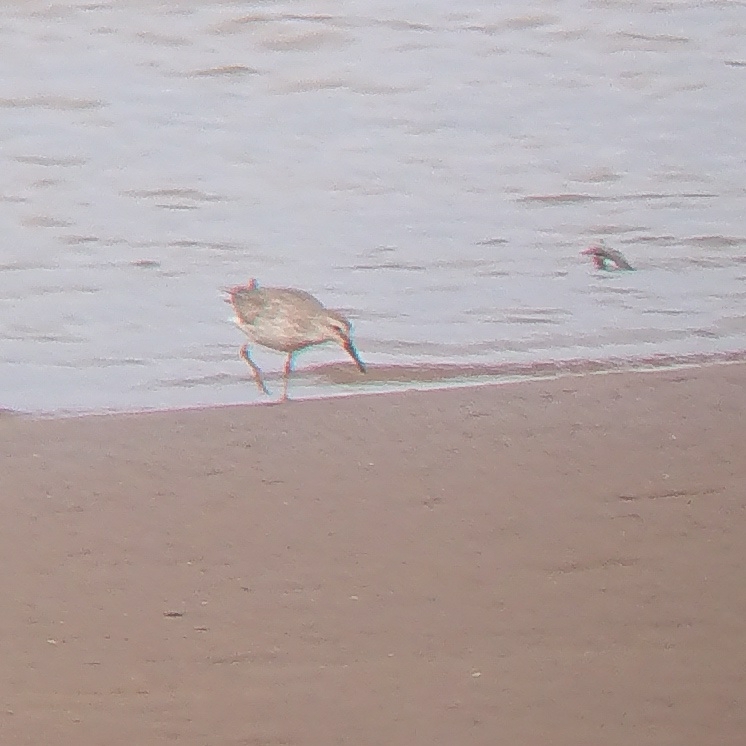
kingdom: Animalia
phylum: Chordata
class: Aves
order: Charadriiformes
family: Scolopacidae
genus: Calidris
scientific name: Calidris canutus
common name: Red knot
